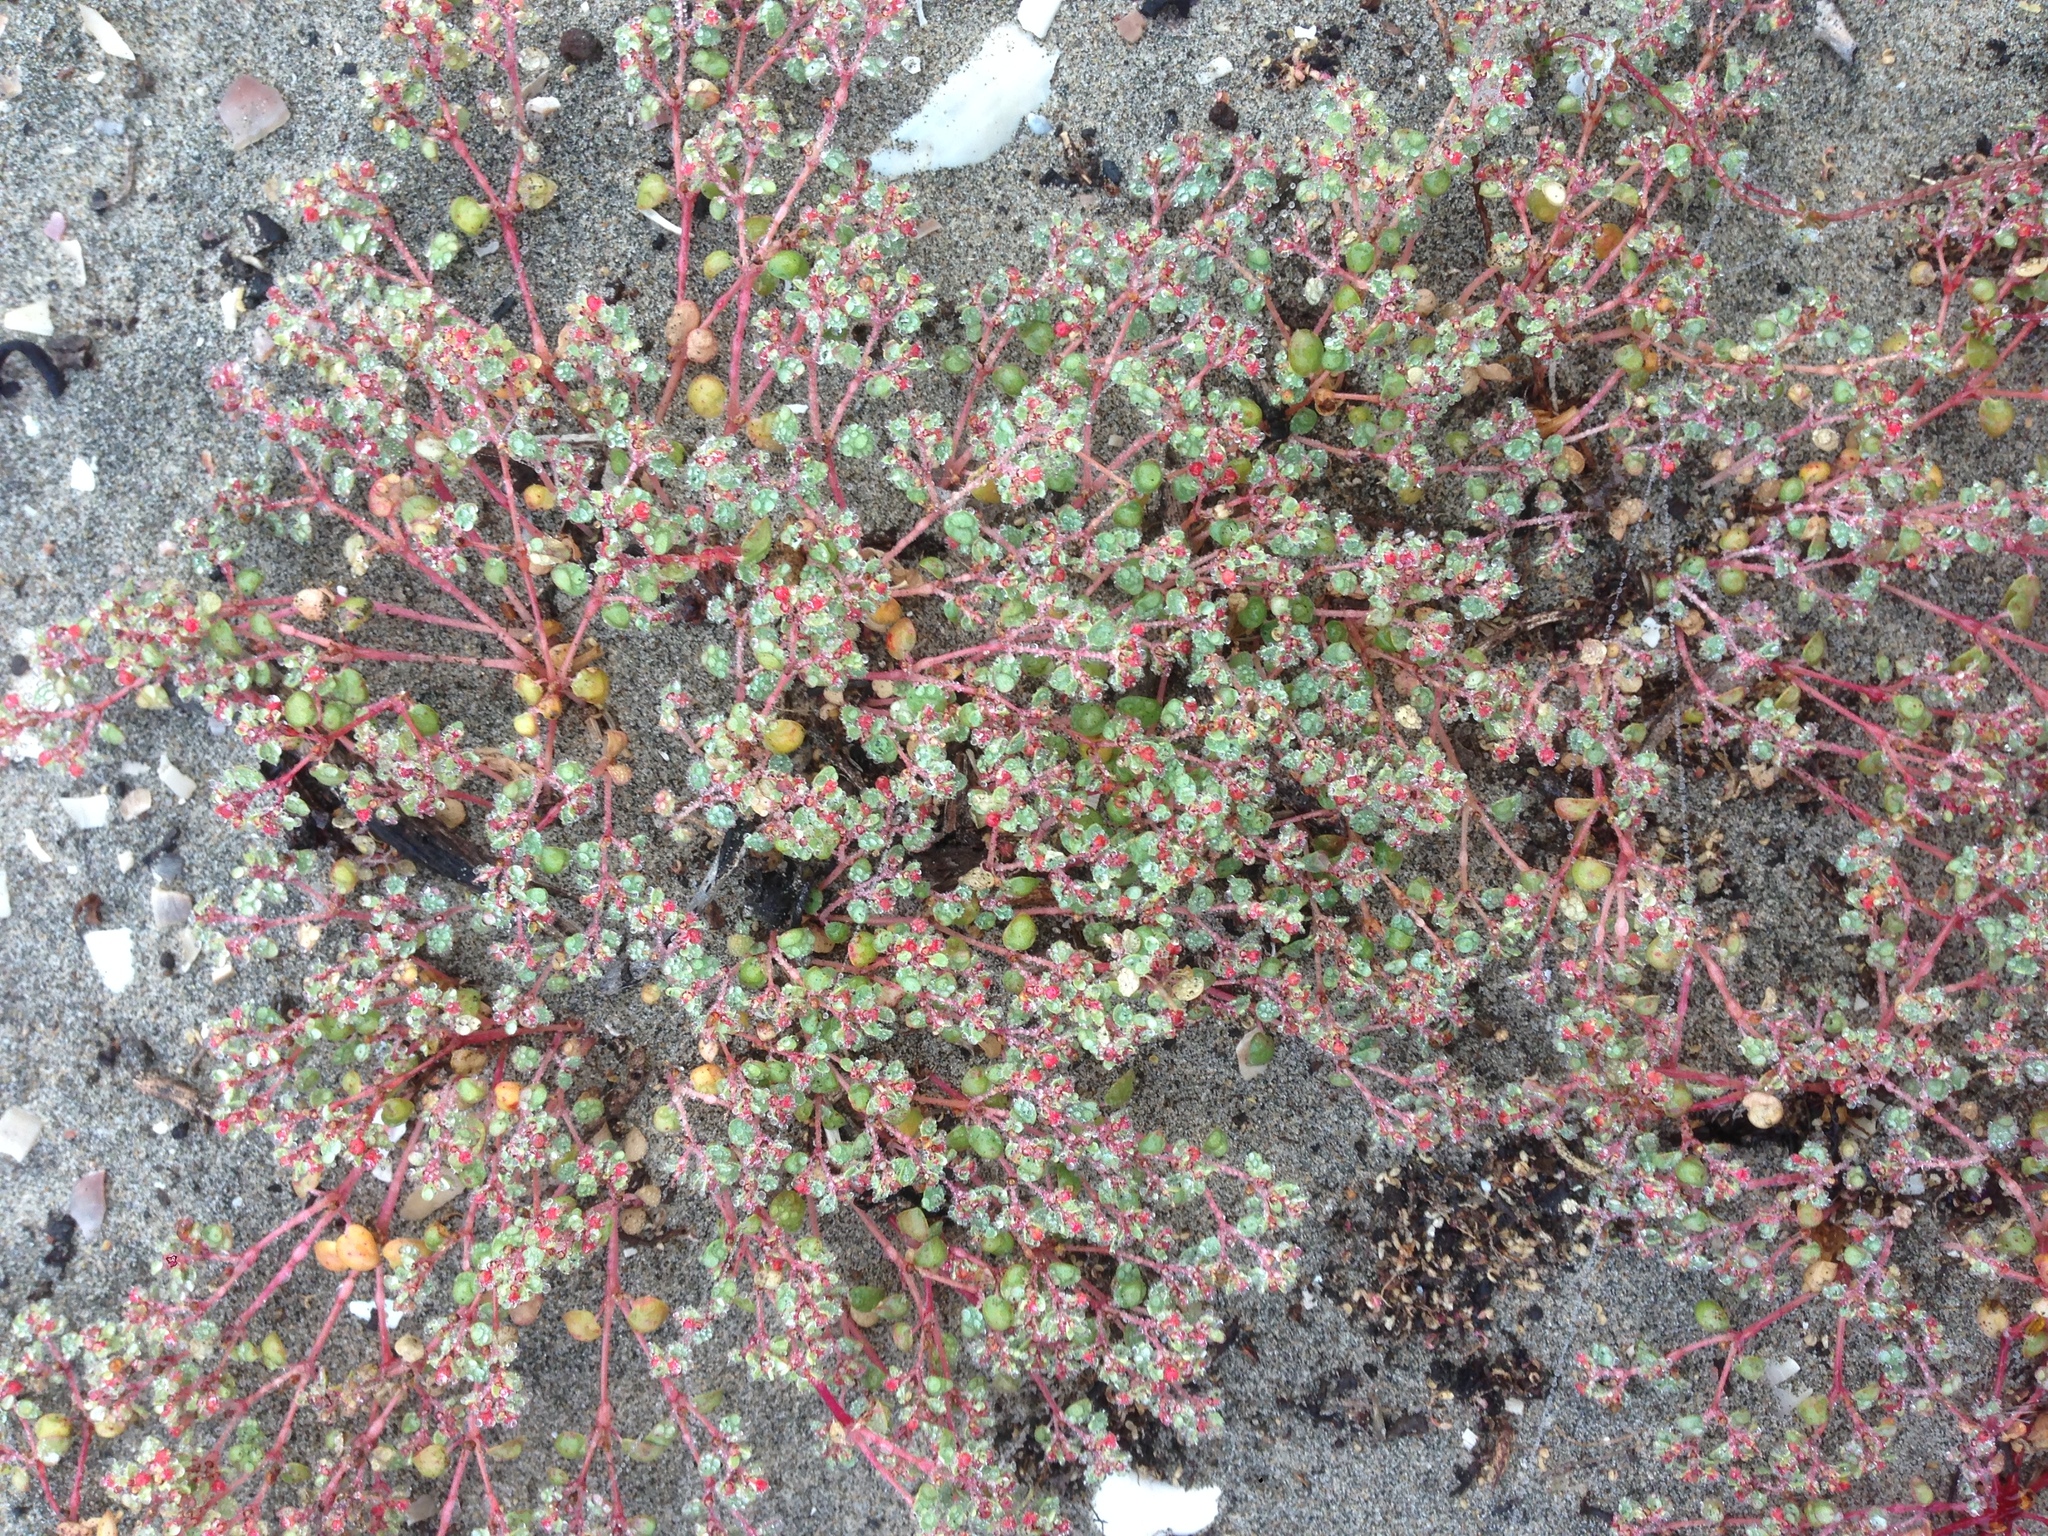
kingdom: Plantae
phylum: Tracheophyta
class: Magnoliopsida
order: Malpighiales
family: Euphorbiaceae
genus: Euphorbia
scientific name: Euphorbia pondii
